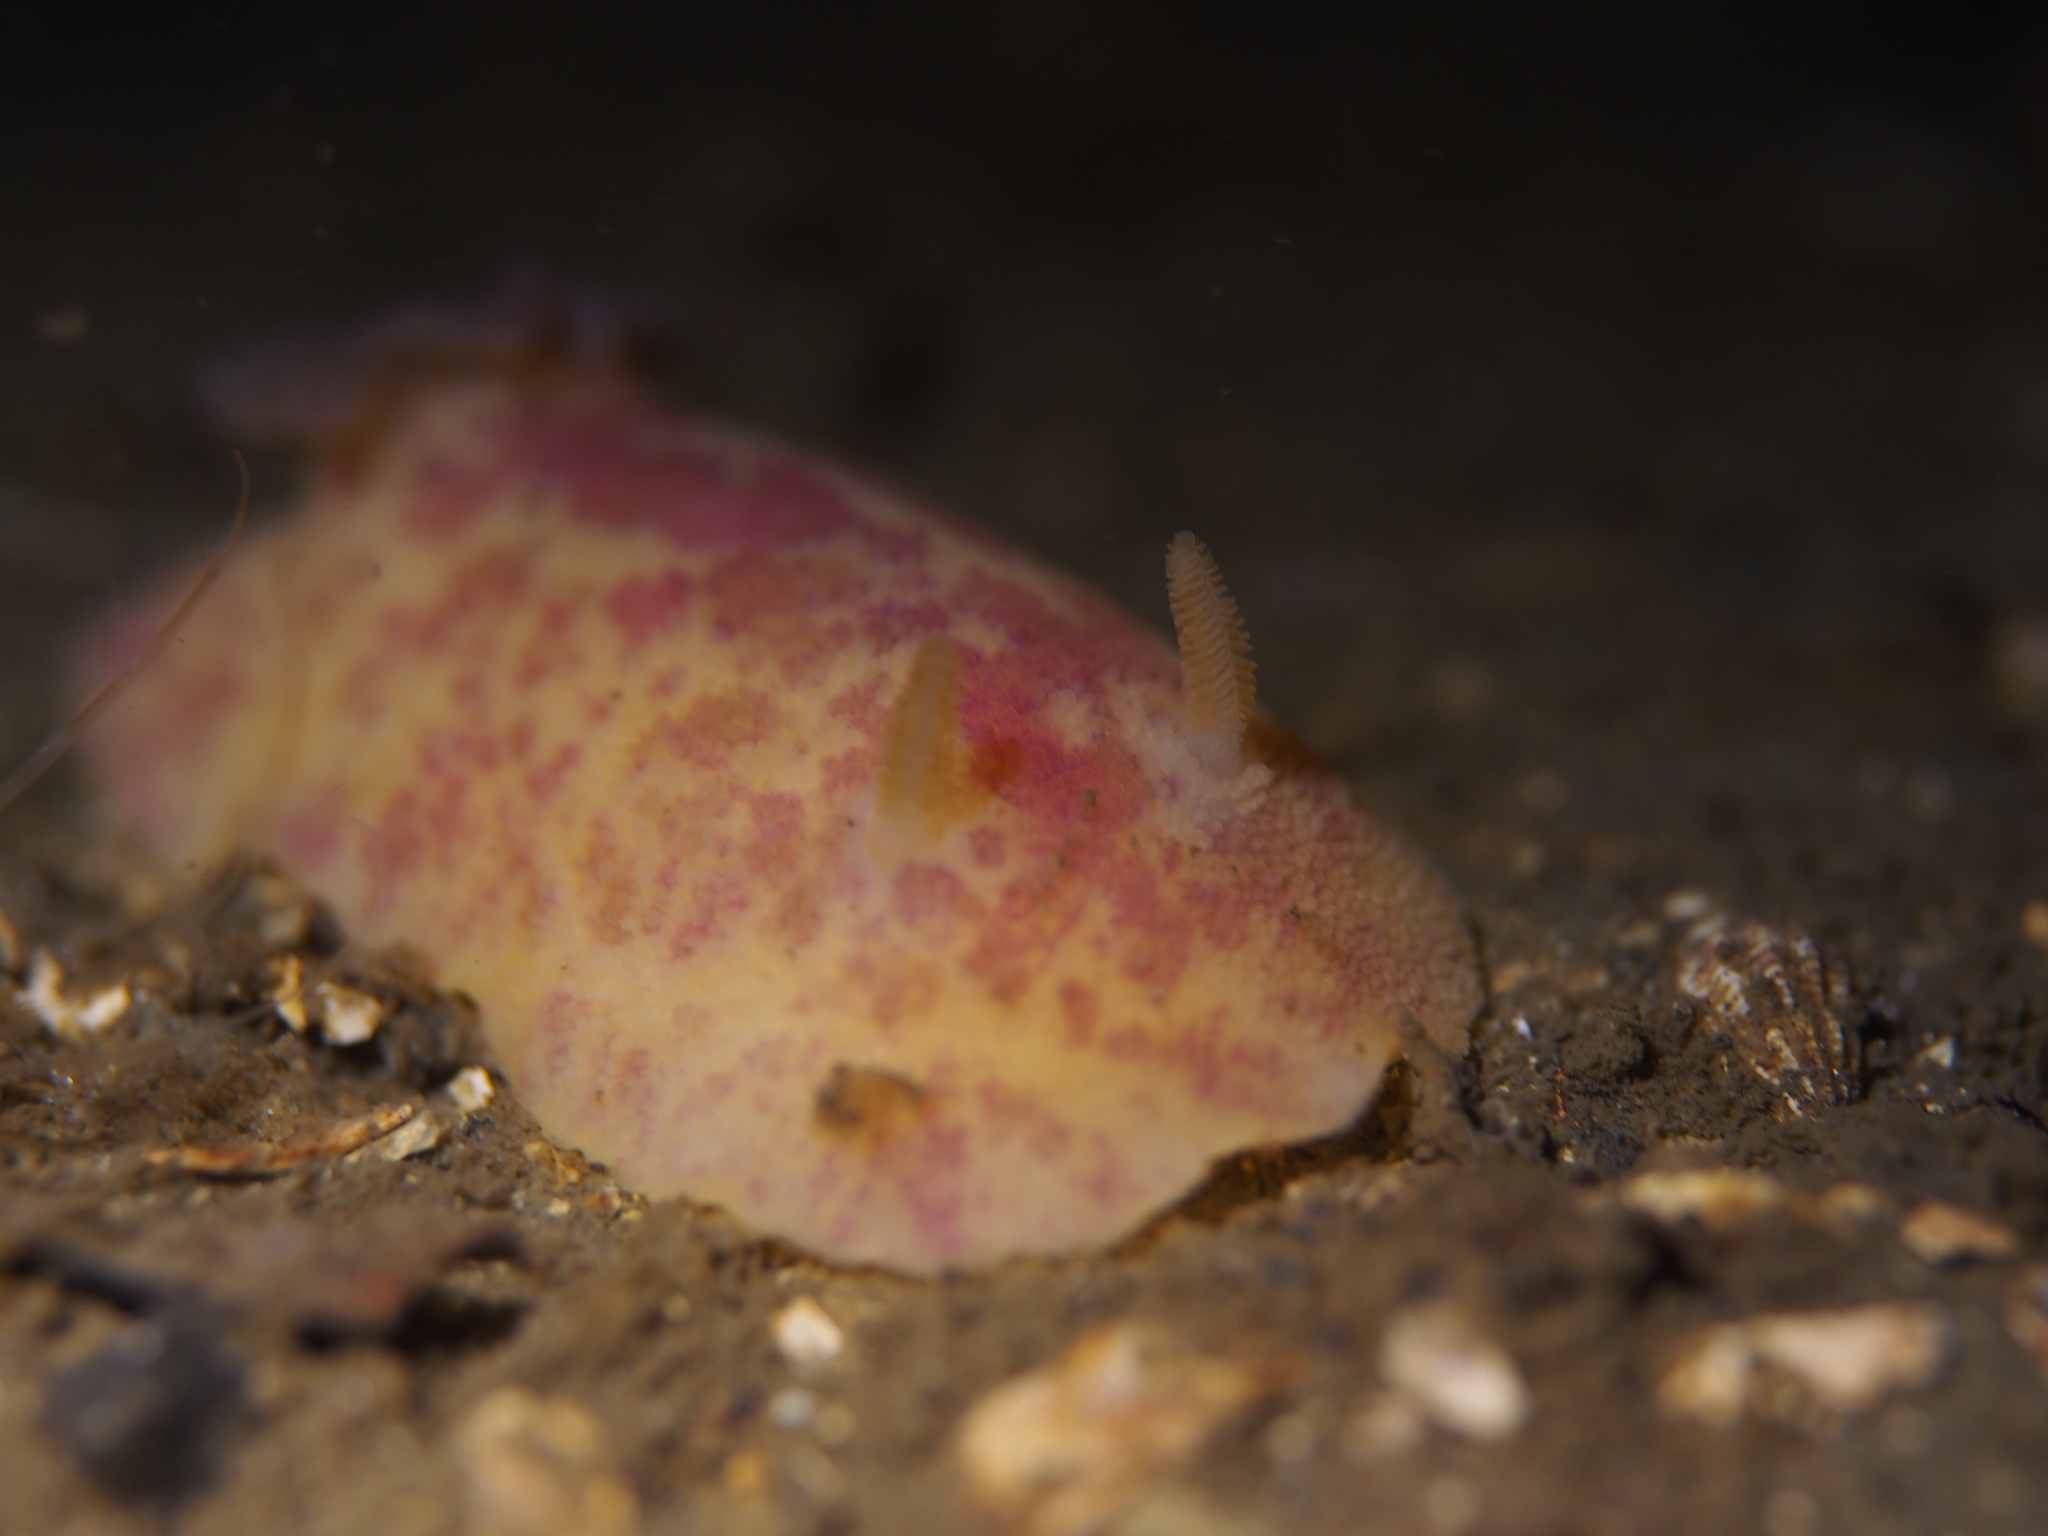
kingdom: Animalia
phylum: Mollusca
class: Gastropoda
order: Nudibranchia
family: Dorididae
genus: Doris
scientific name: Doris pseudoargus
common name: Sea lemon
